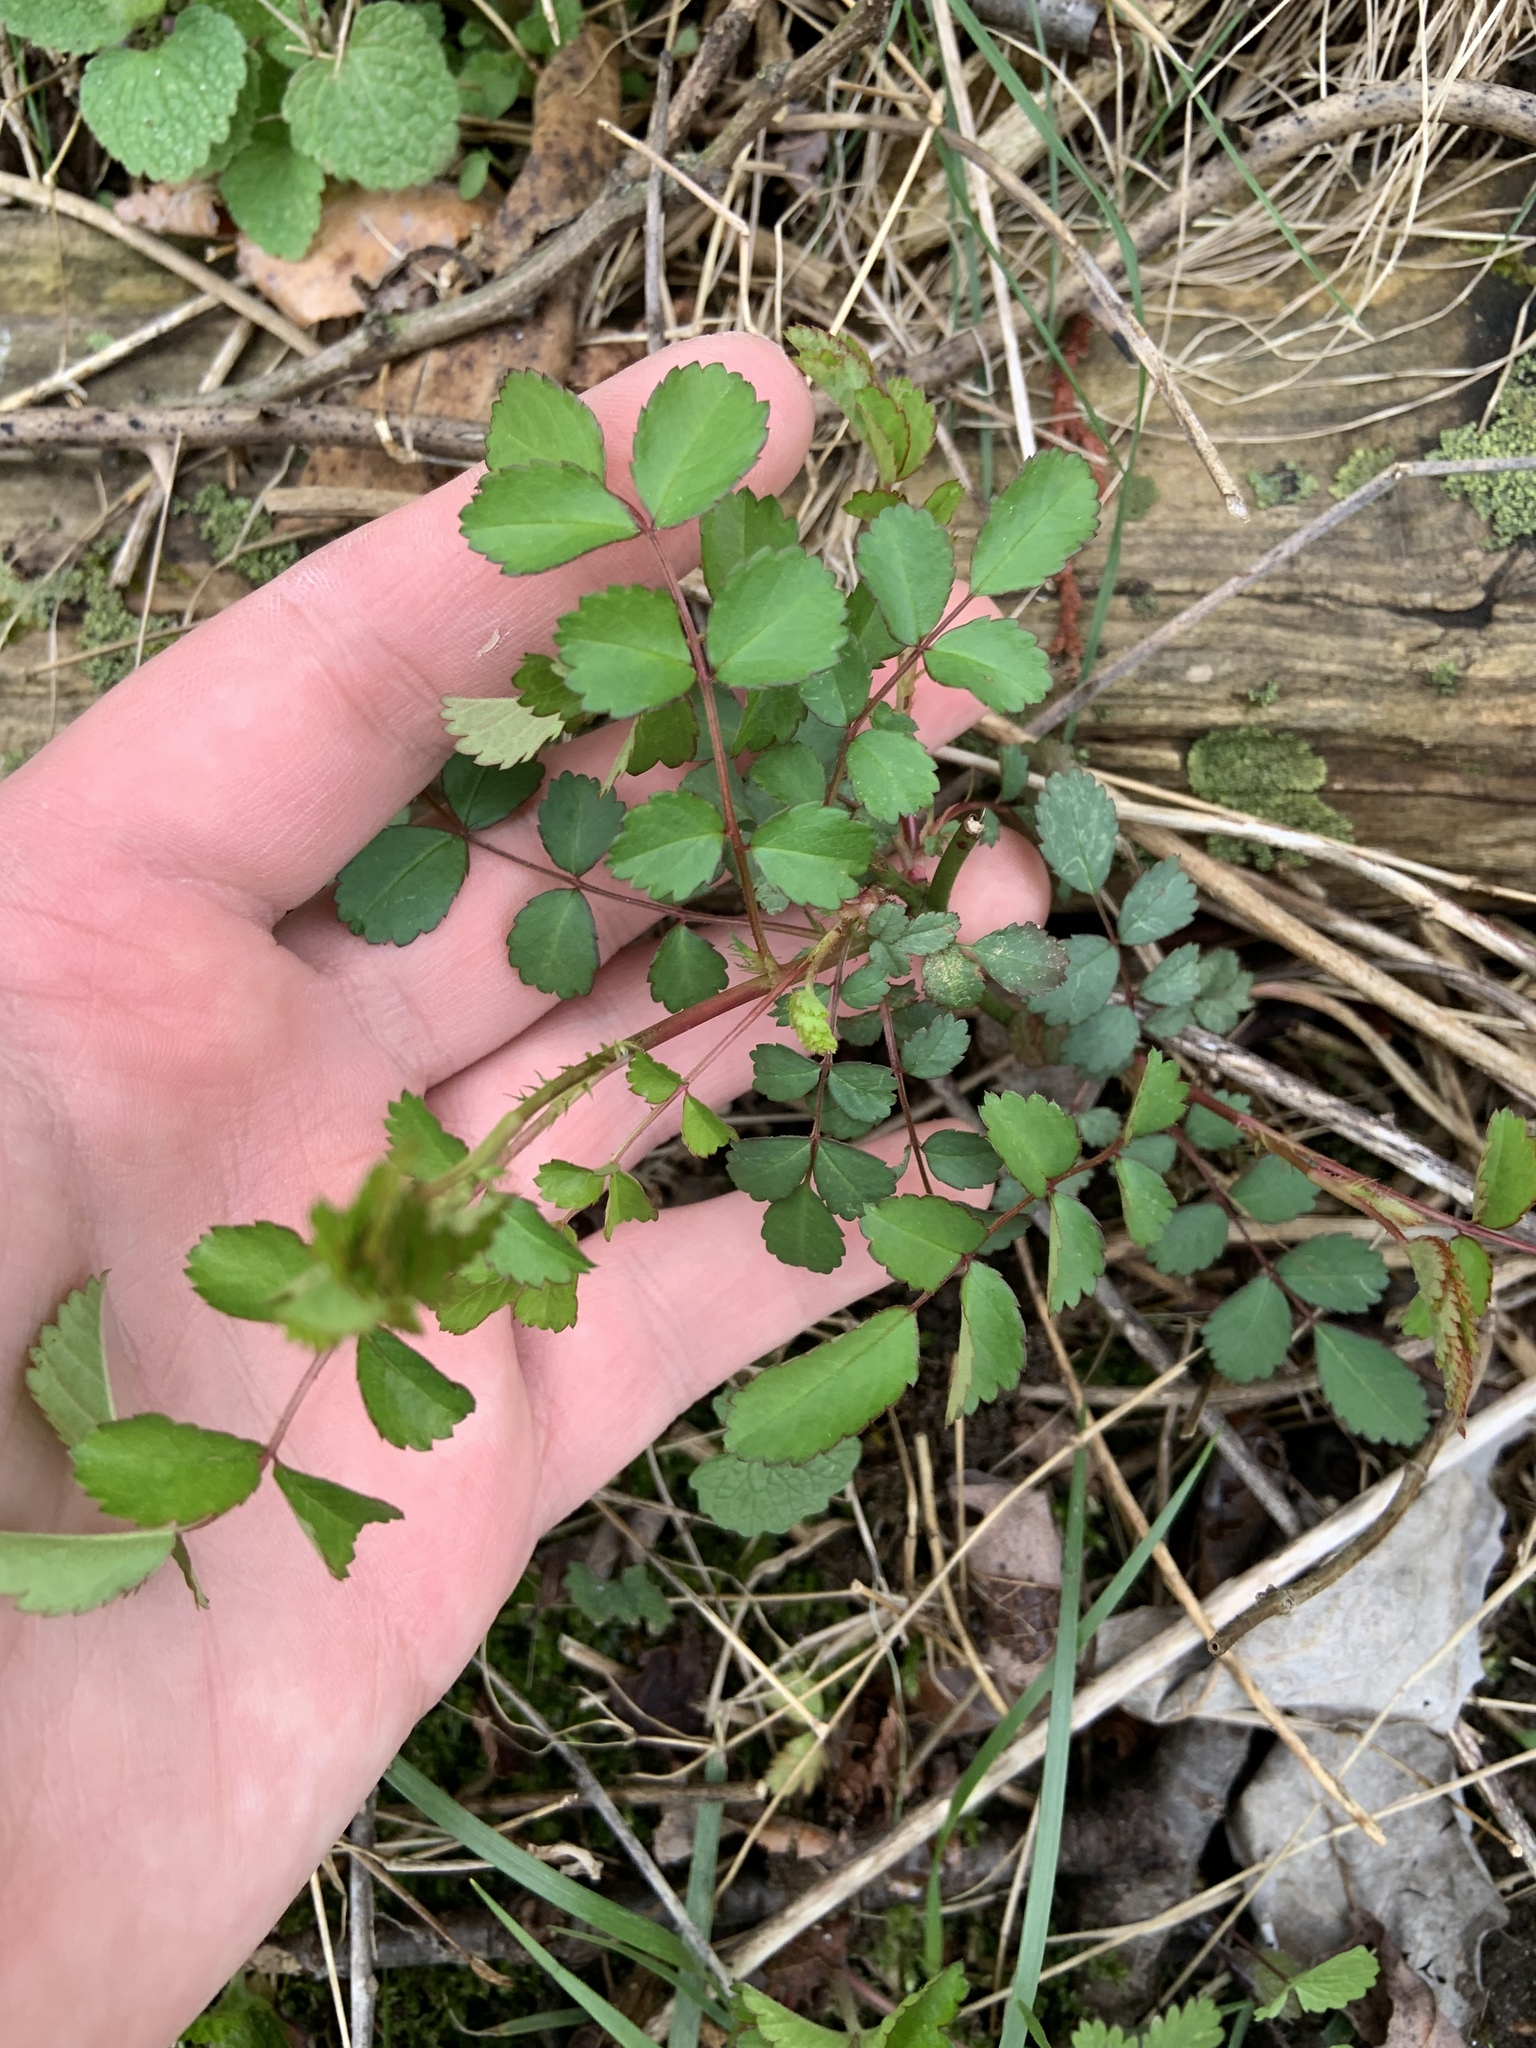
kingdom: Plantae
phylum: Tracheophyta
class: Magnoliopsida
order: Rosales
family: Rosaceae
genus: Rosa
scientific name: Rosa multiflora
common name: Multiflora rose
